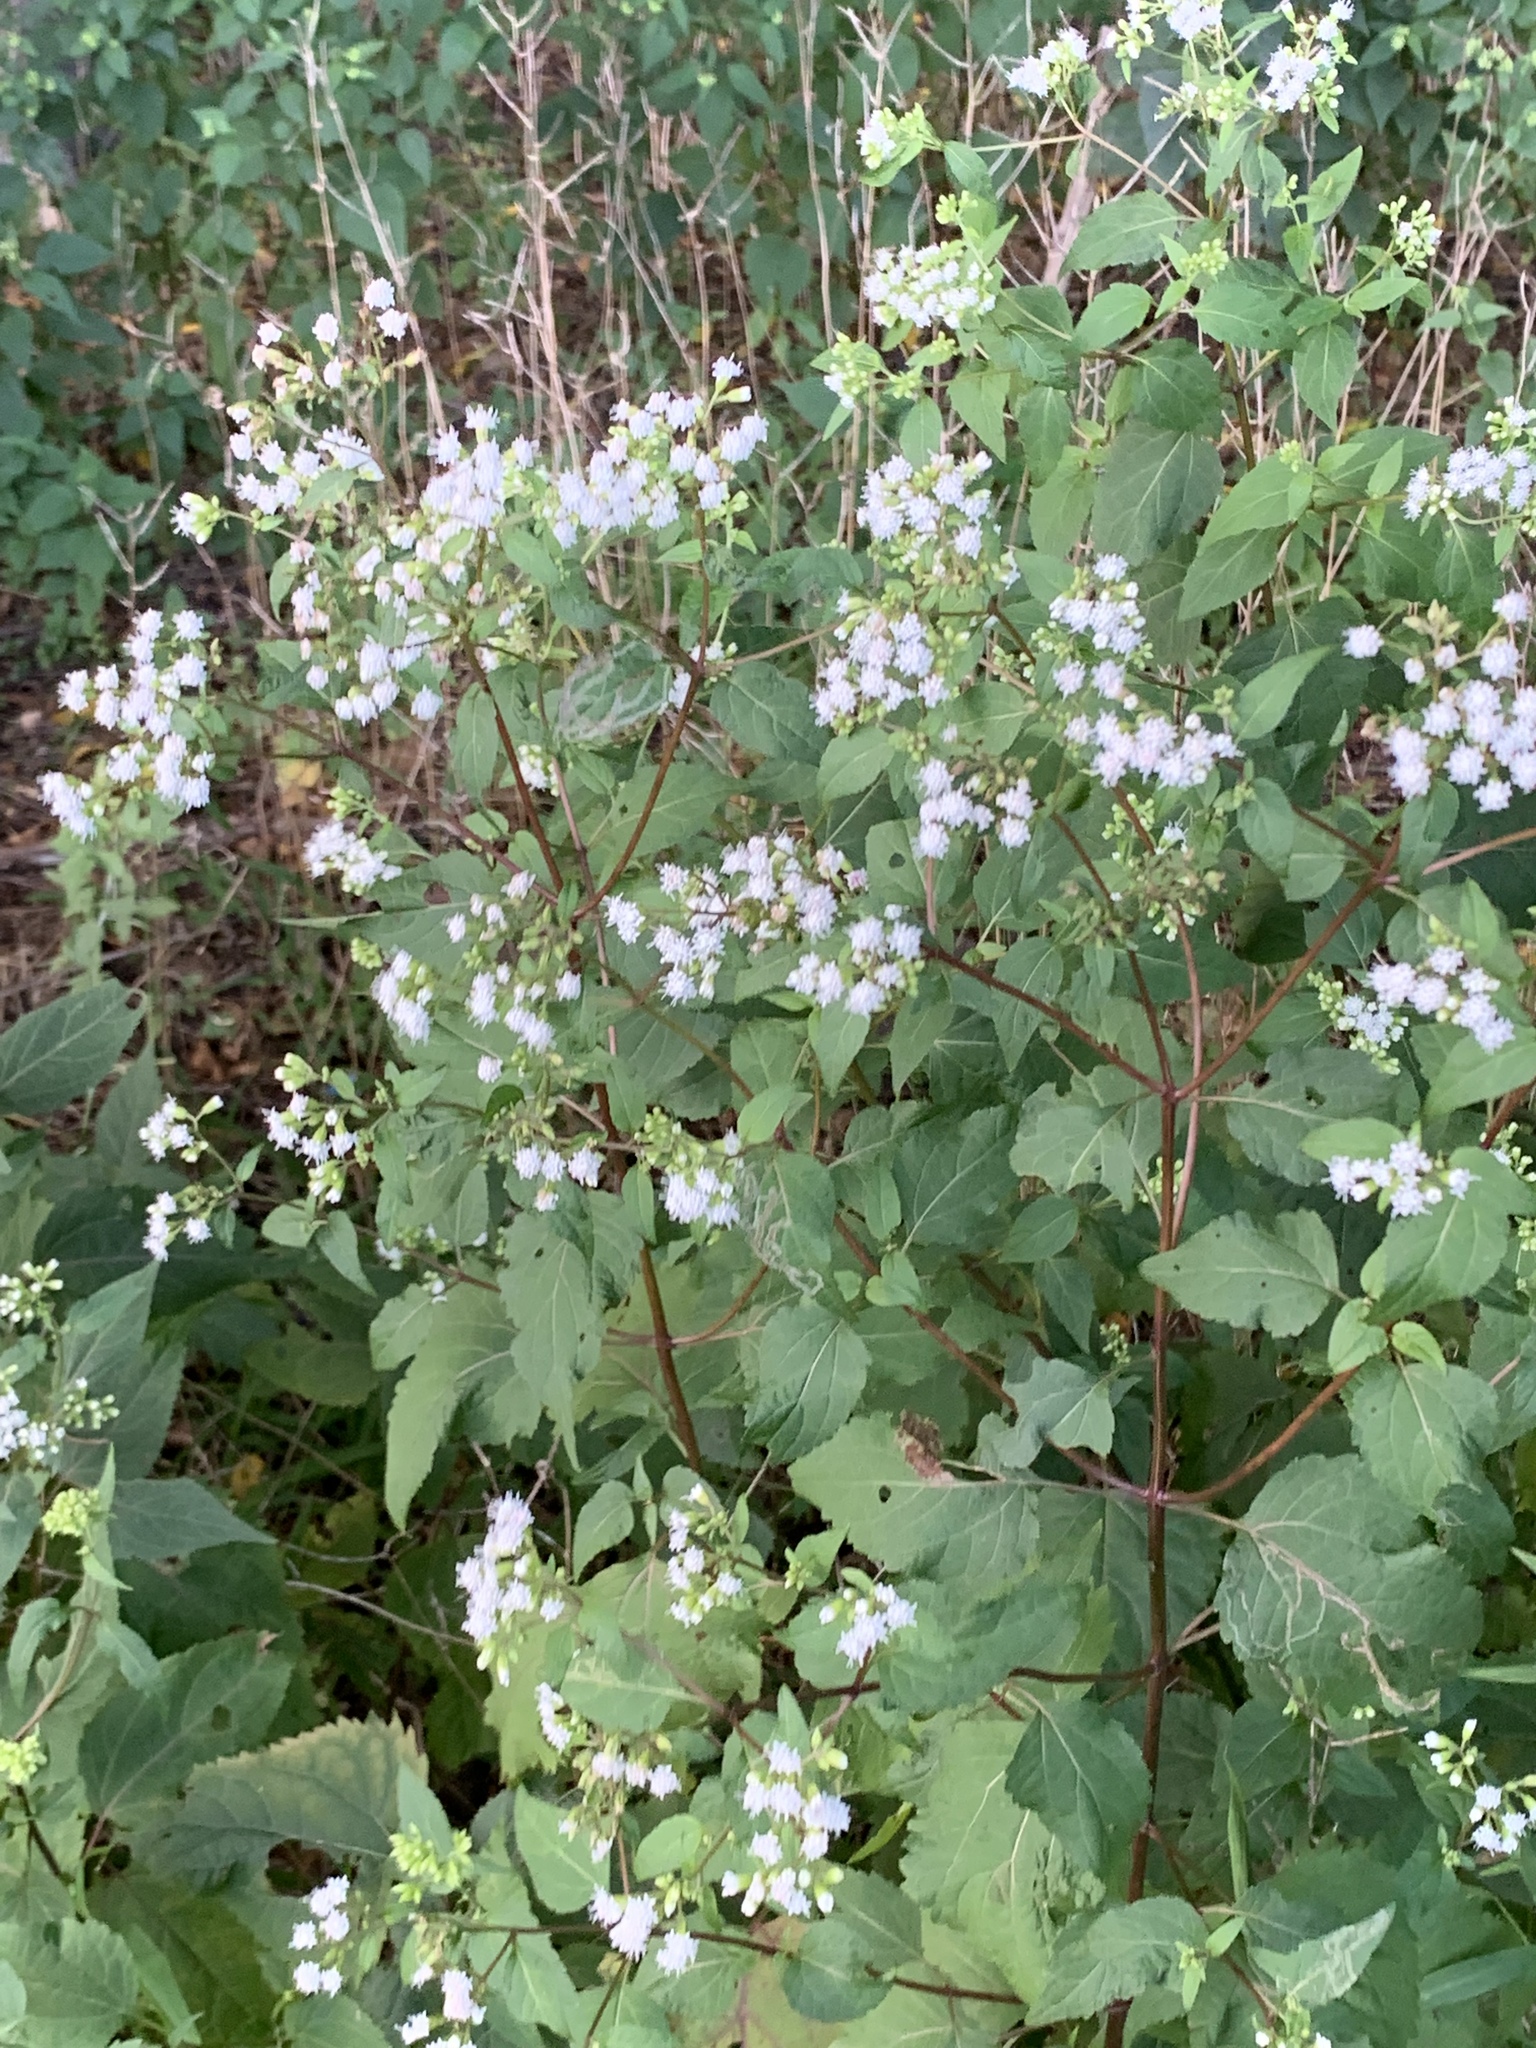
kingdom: Plantae
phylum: Tracheophyta
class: Magnoliopsida
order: Asterales
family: Asteraceae
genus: Ageratina
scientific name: Ageratina altissima
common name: White snakeroot
